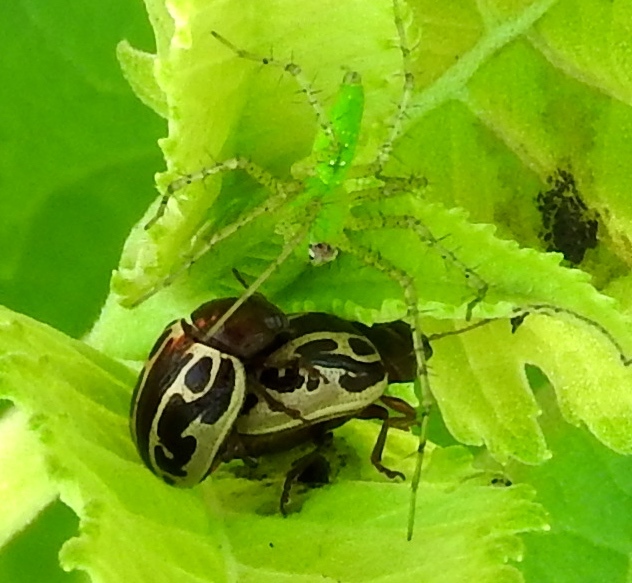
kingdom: Animalia
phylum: Arthropoda
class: Insecta
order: Coleoptera
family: Chrysomelidae
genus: Calligrapha
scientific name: Calligrapha
